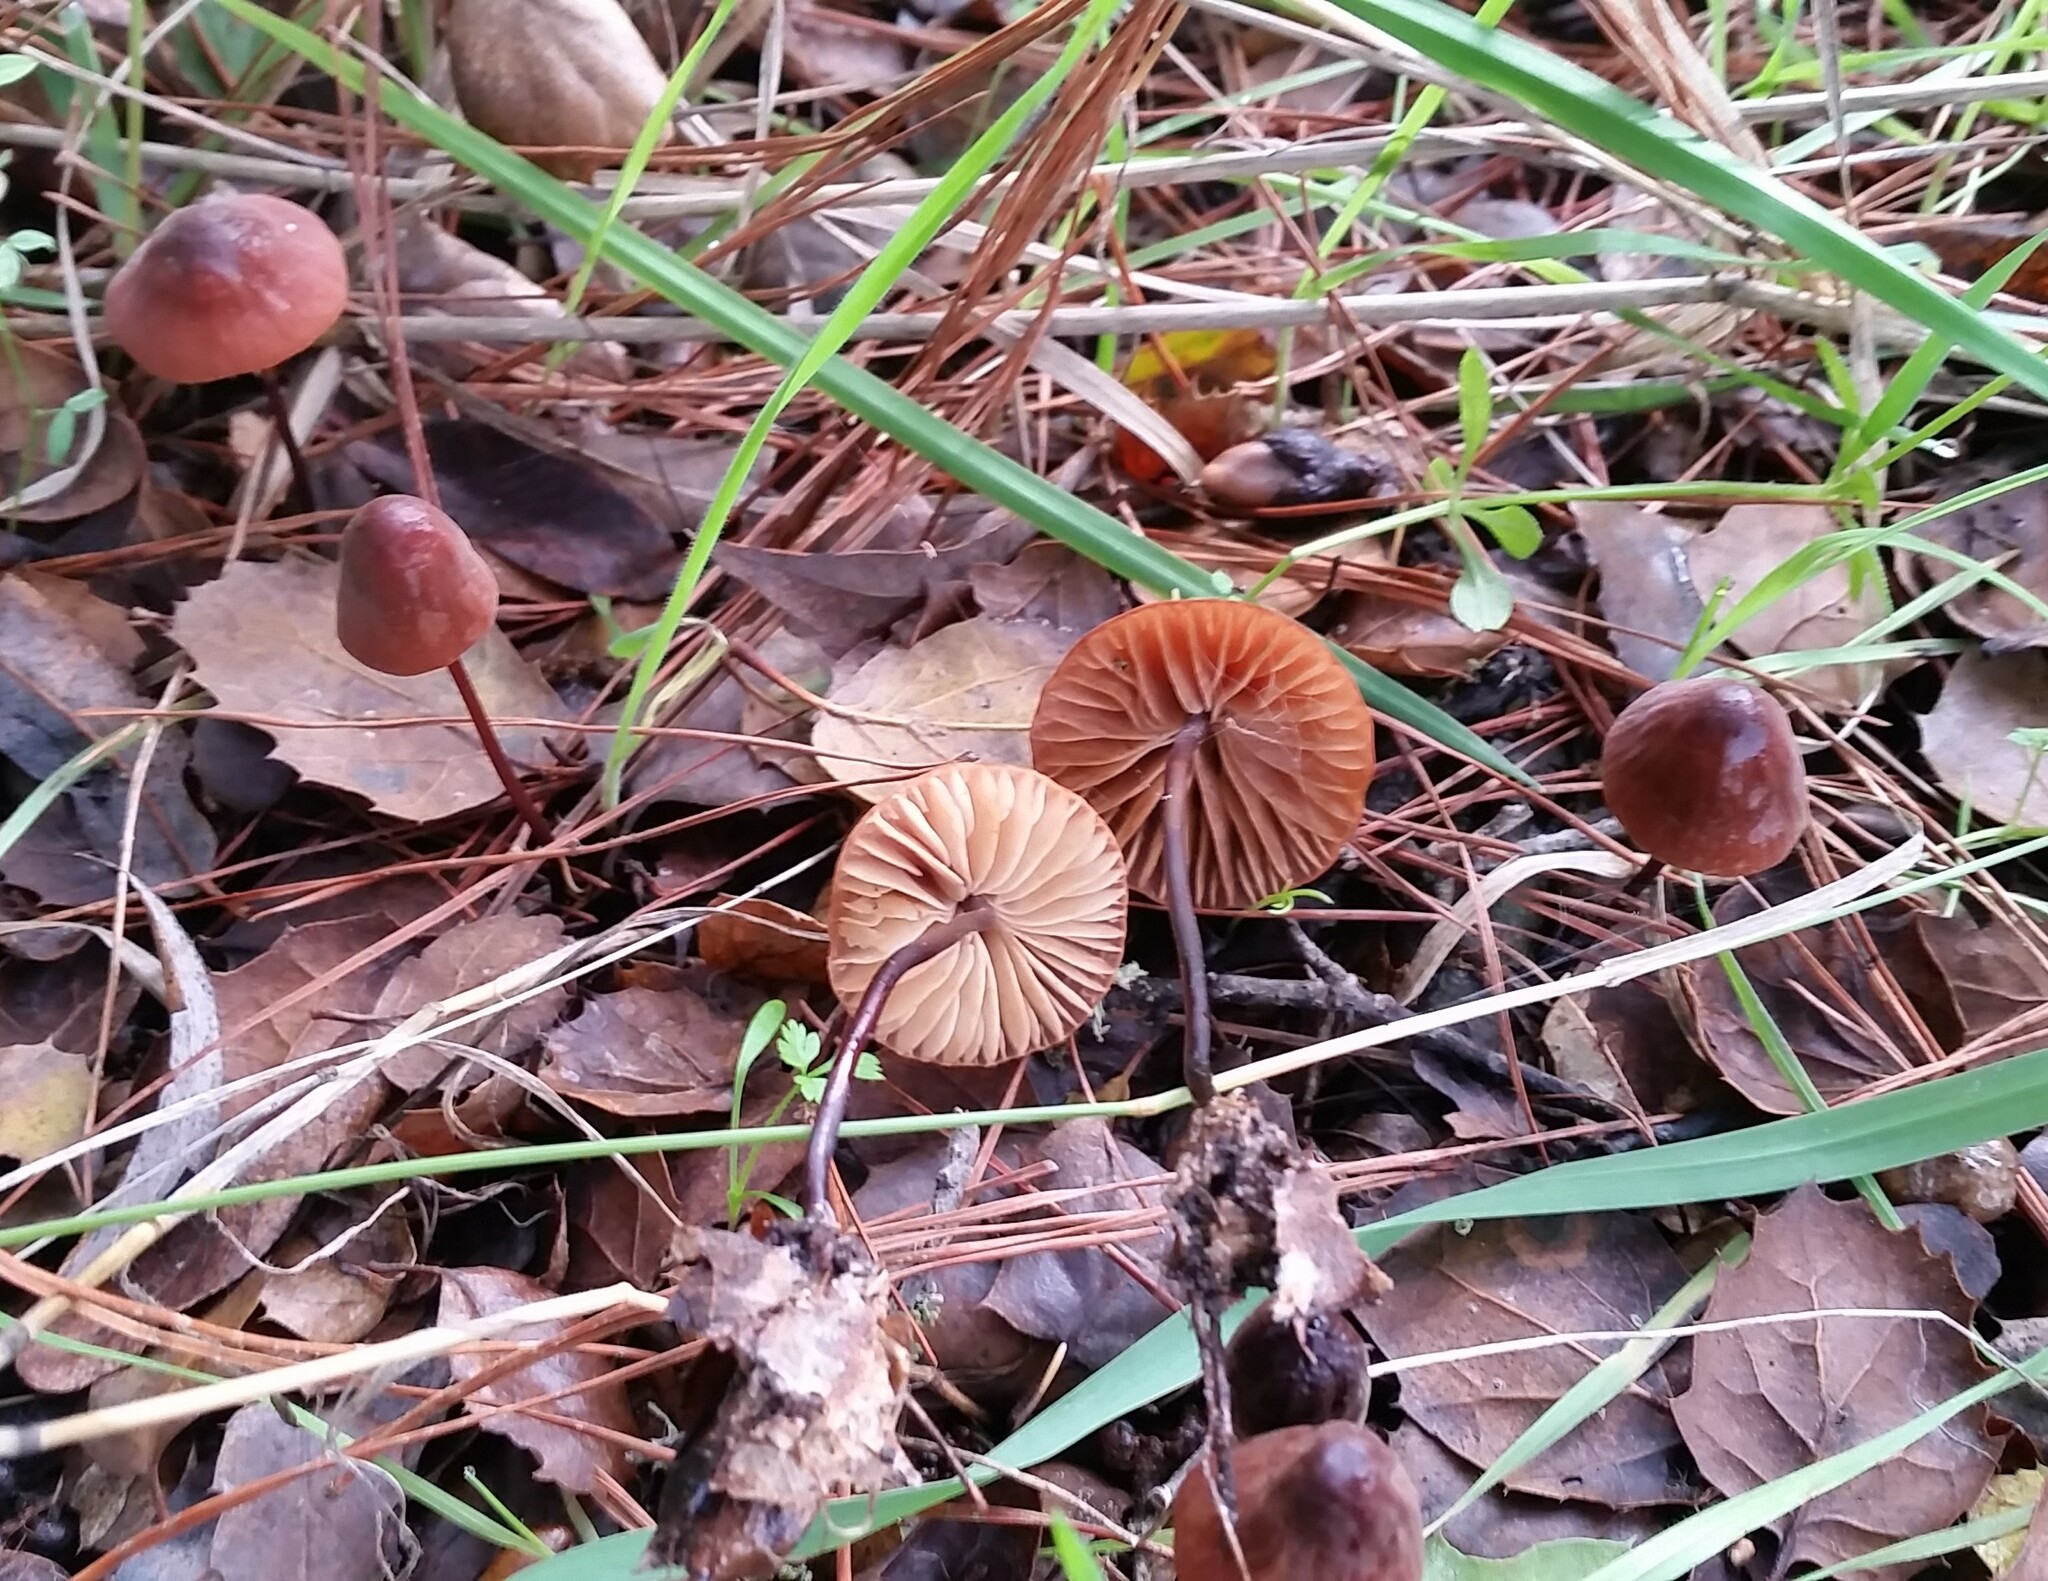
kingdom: Fungi
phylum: Basidiomycota
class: Agaricomycetes
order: Agaricales
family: Marasmiaceae
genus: Marasmius
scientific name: Marasmius plicatulus
